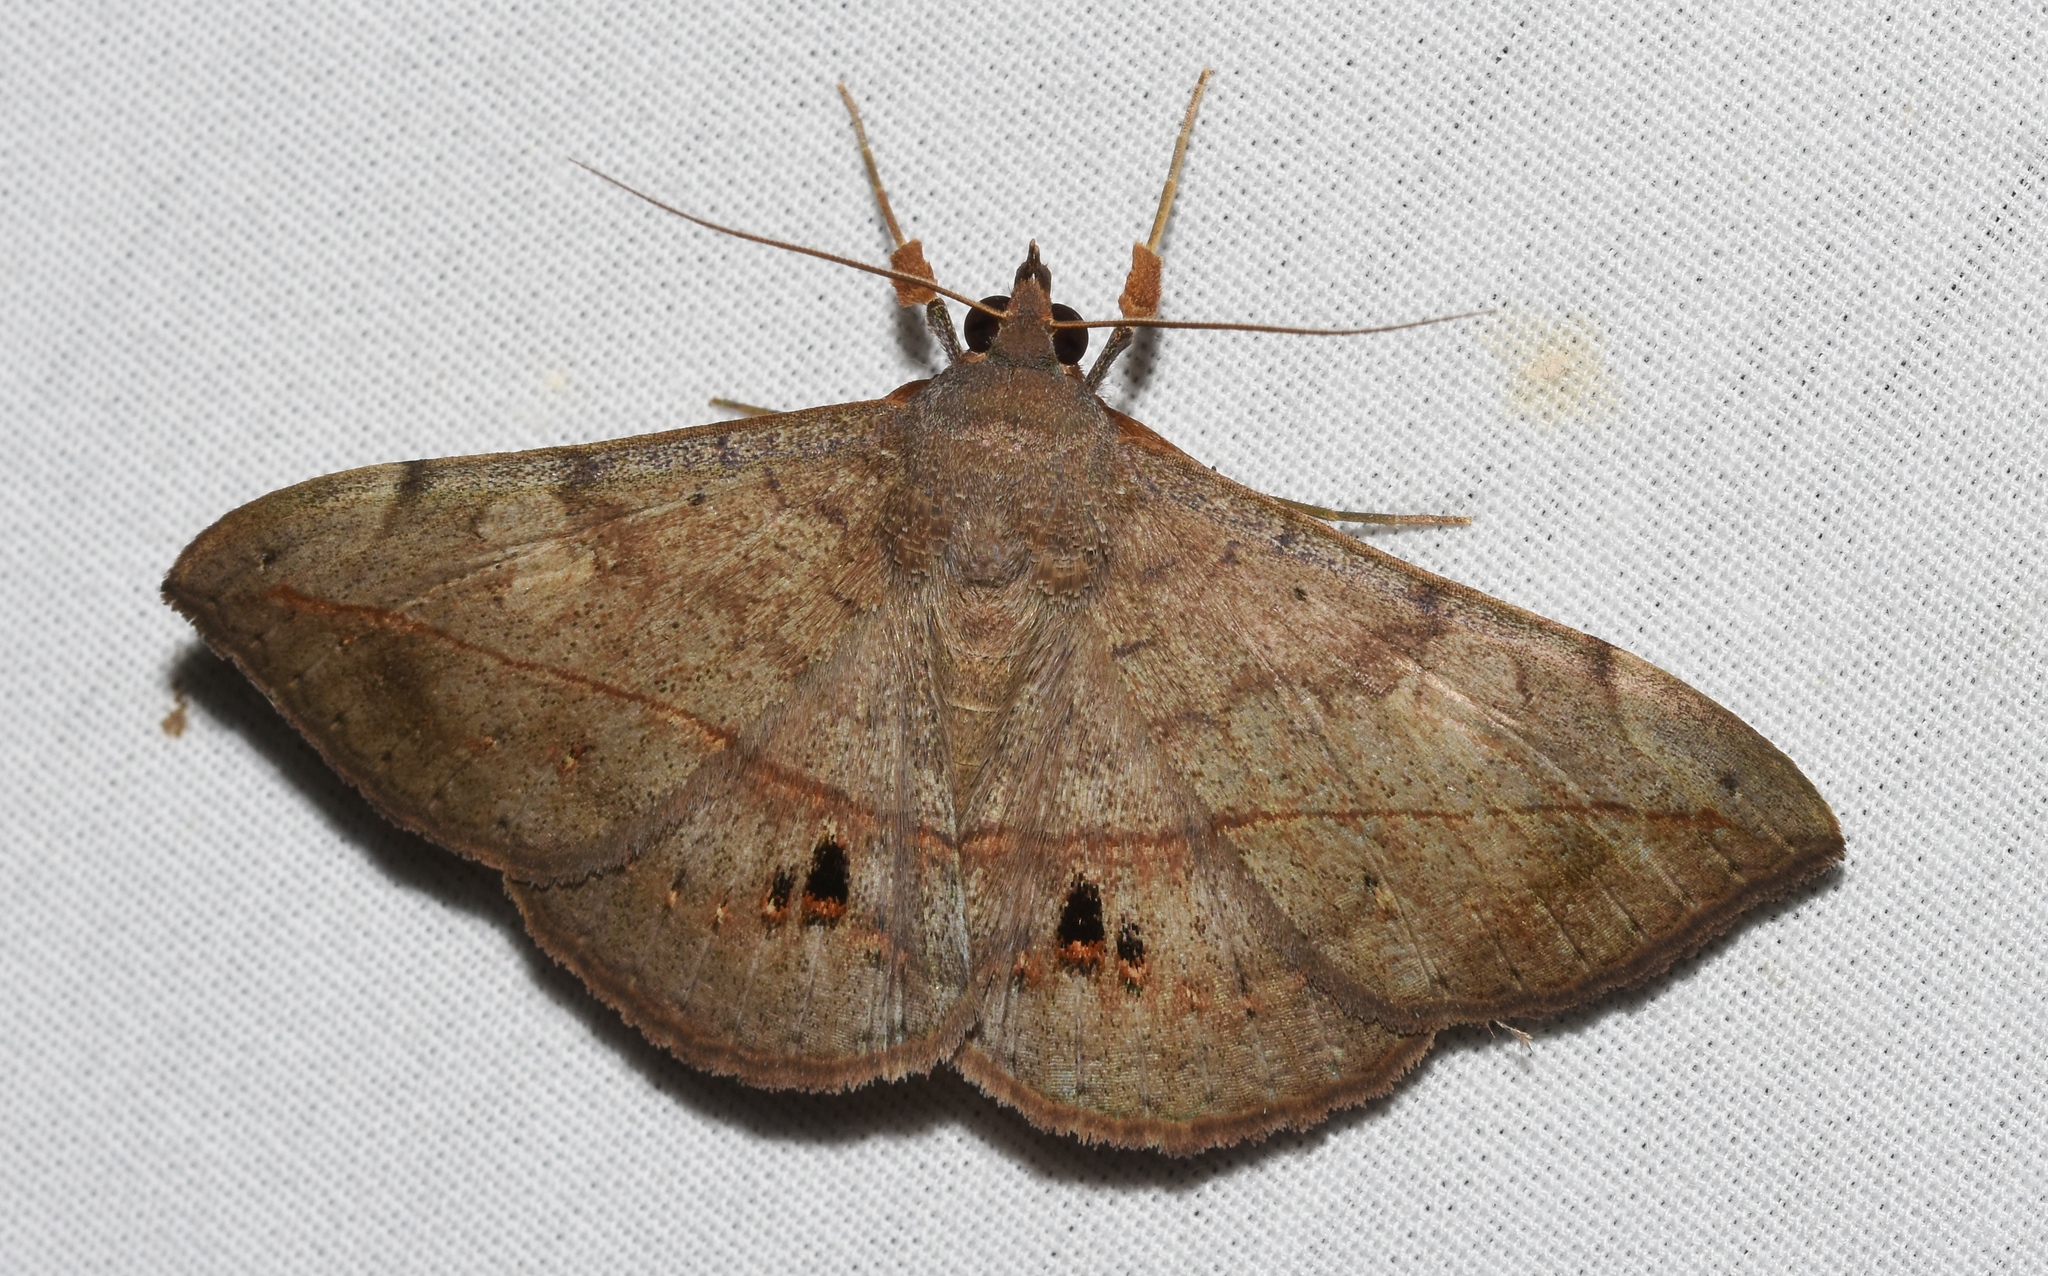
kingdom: Animalia
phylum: Arthropoda
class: Insecta
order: Lepidoptera
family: Erebidae
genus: Anticarsia
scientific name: Anticarsia gemmatalis
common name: Cutworm moth
